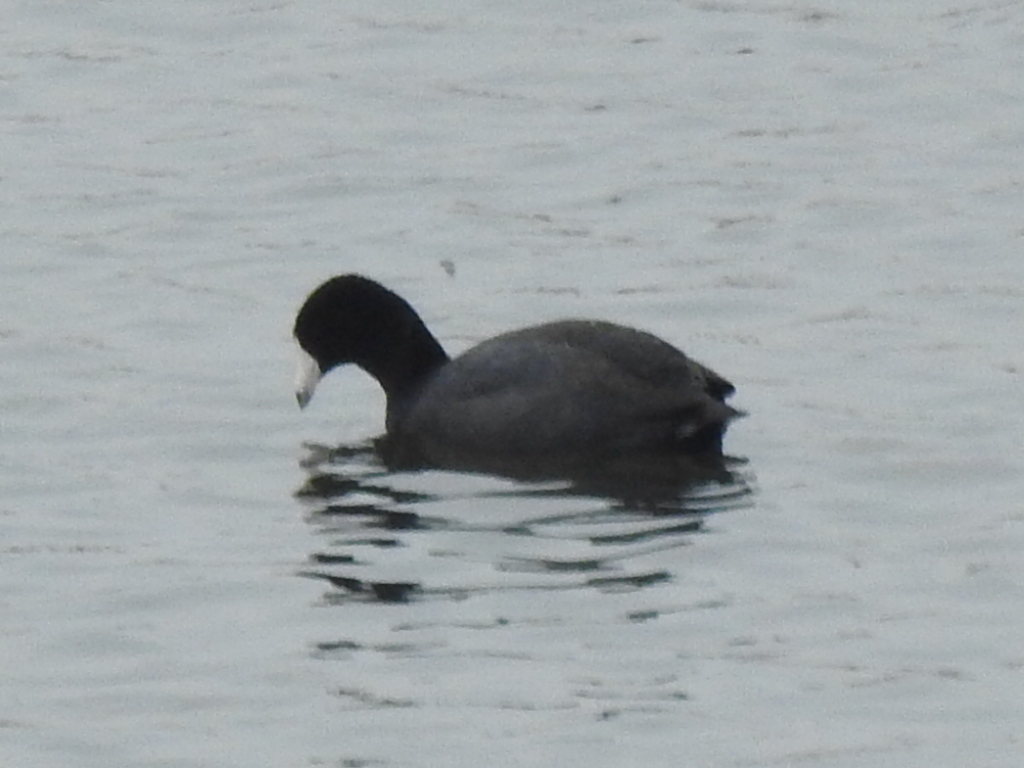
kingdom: Animalia
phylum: Chordata
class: Aves
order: Gruiformes
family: Rallidae
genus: Fulica
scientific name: Fulica americana
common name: American coot
